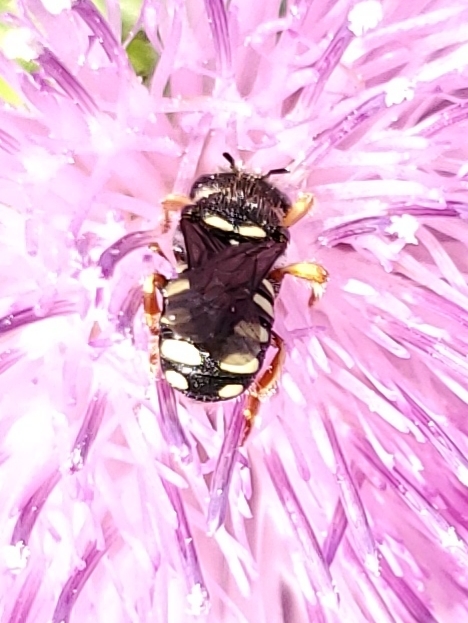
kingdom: Animalia
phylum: Arthropoda
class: Insecta
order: Hymenoptera
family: Megachilidae
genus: Pseudoanthidium
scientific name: Pseudoanthidium nanum
